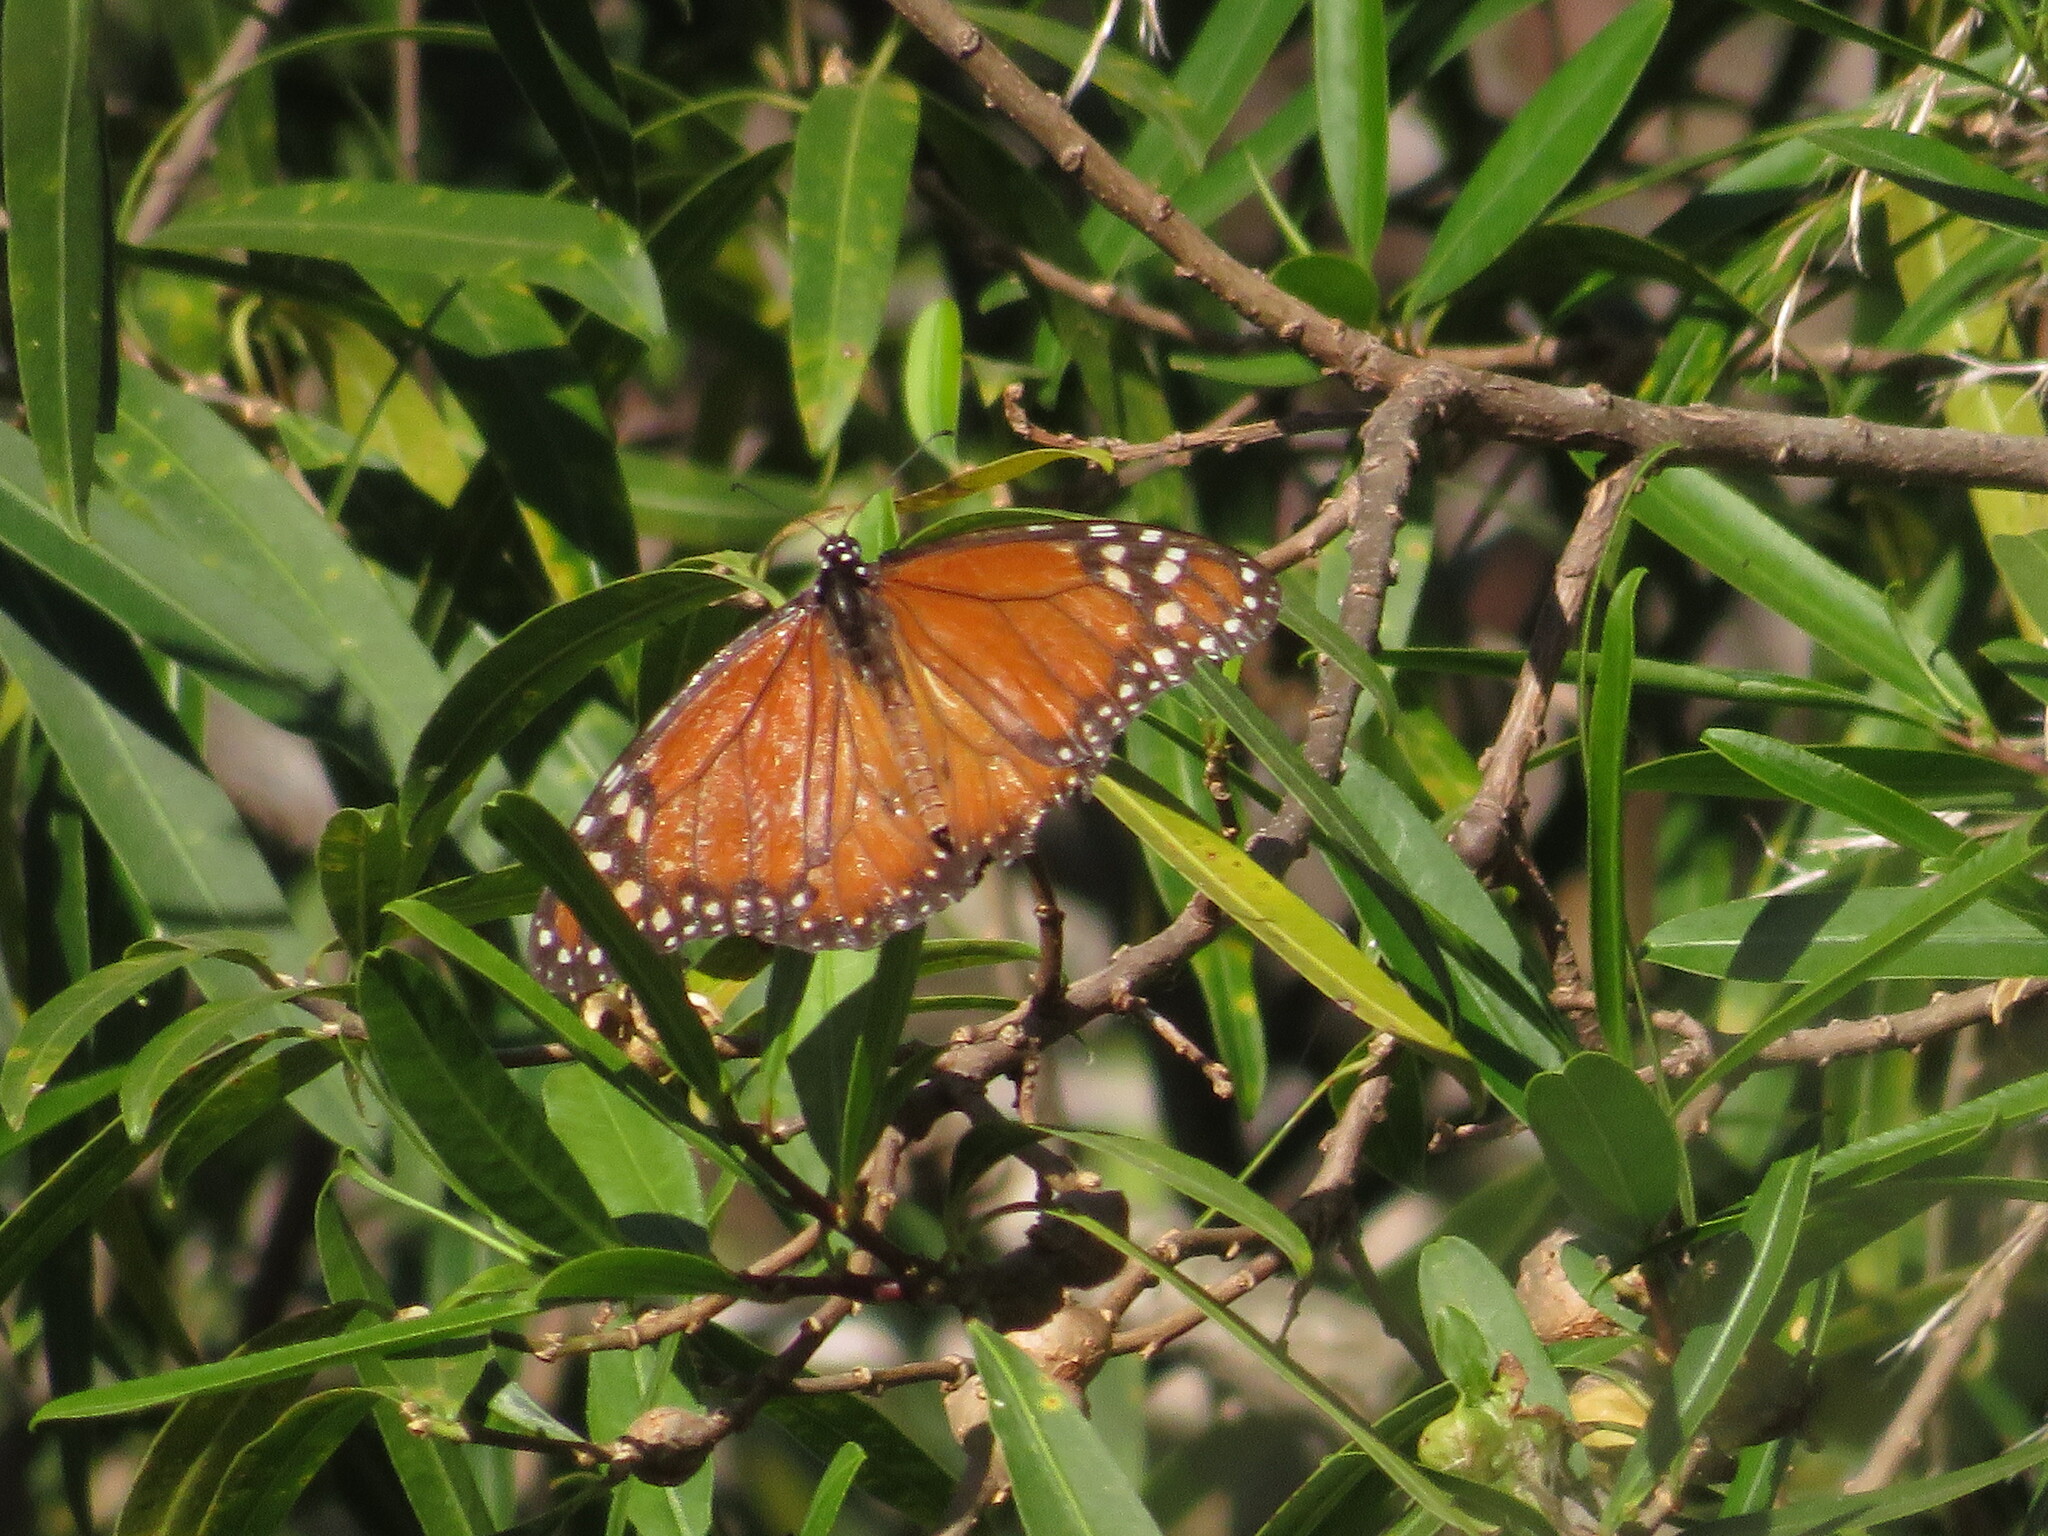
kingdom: Animalia
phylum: Arthropoda
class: Insecta
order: Lepidoptera
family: Nymphalidae
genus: Danaus
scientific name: Danaus erippus
